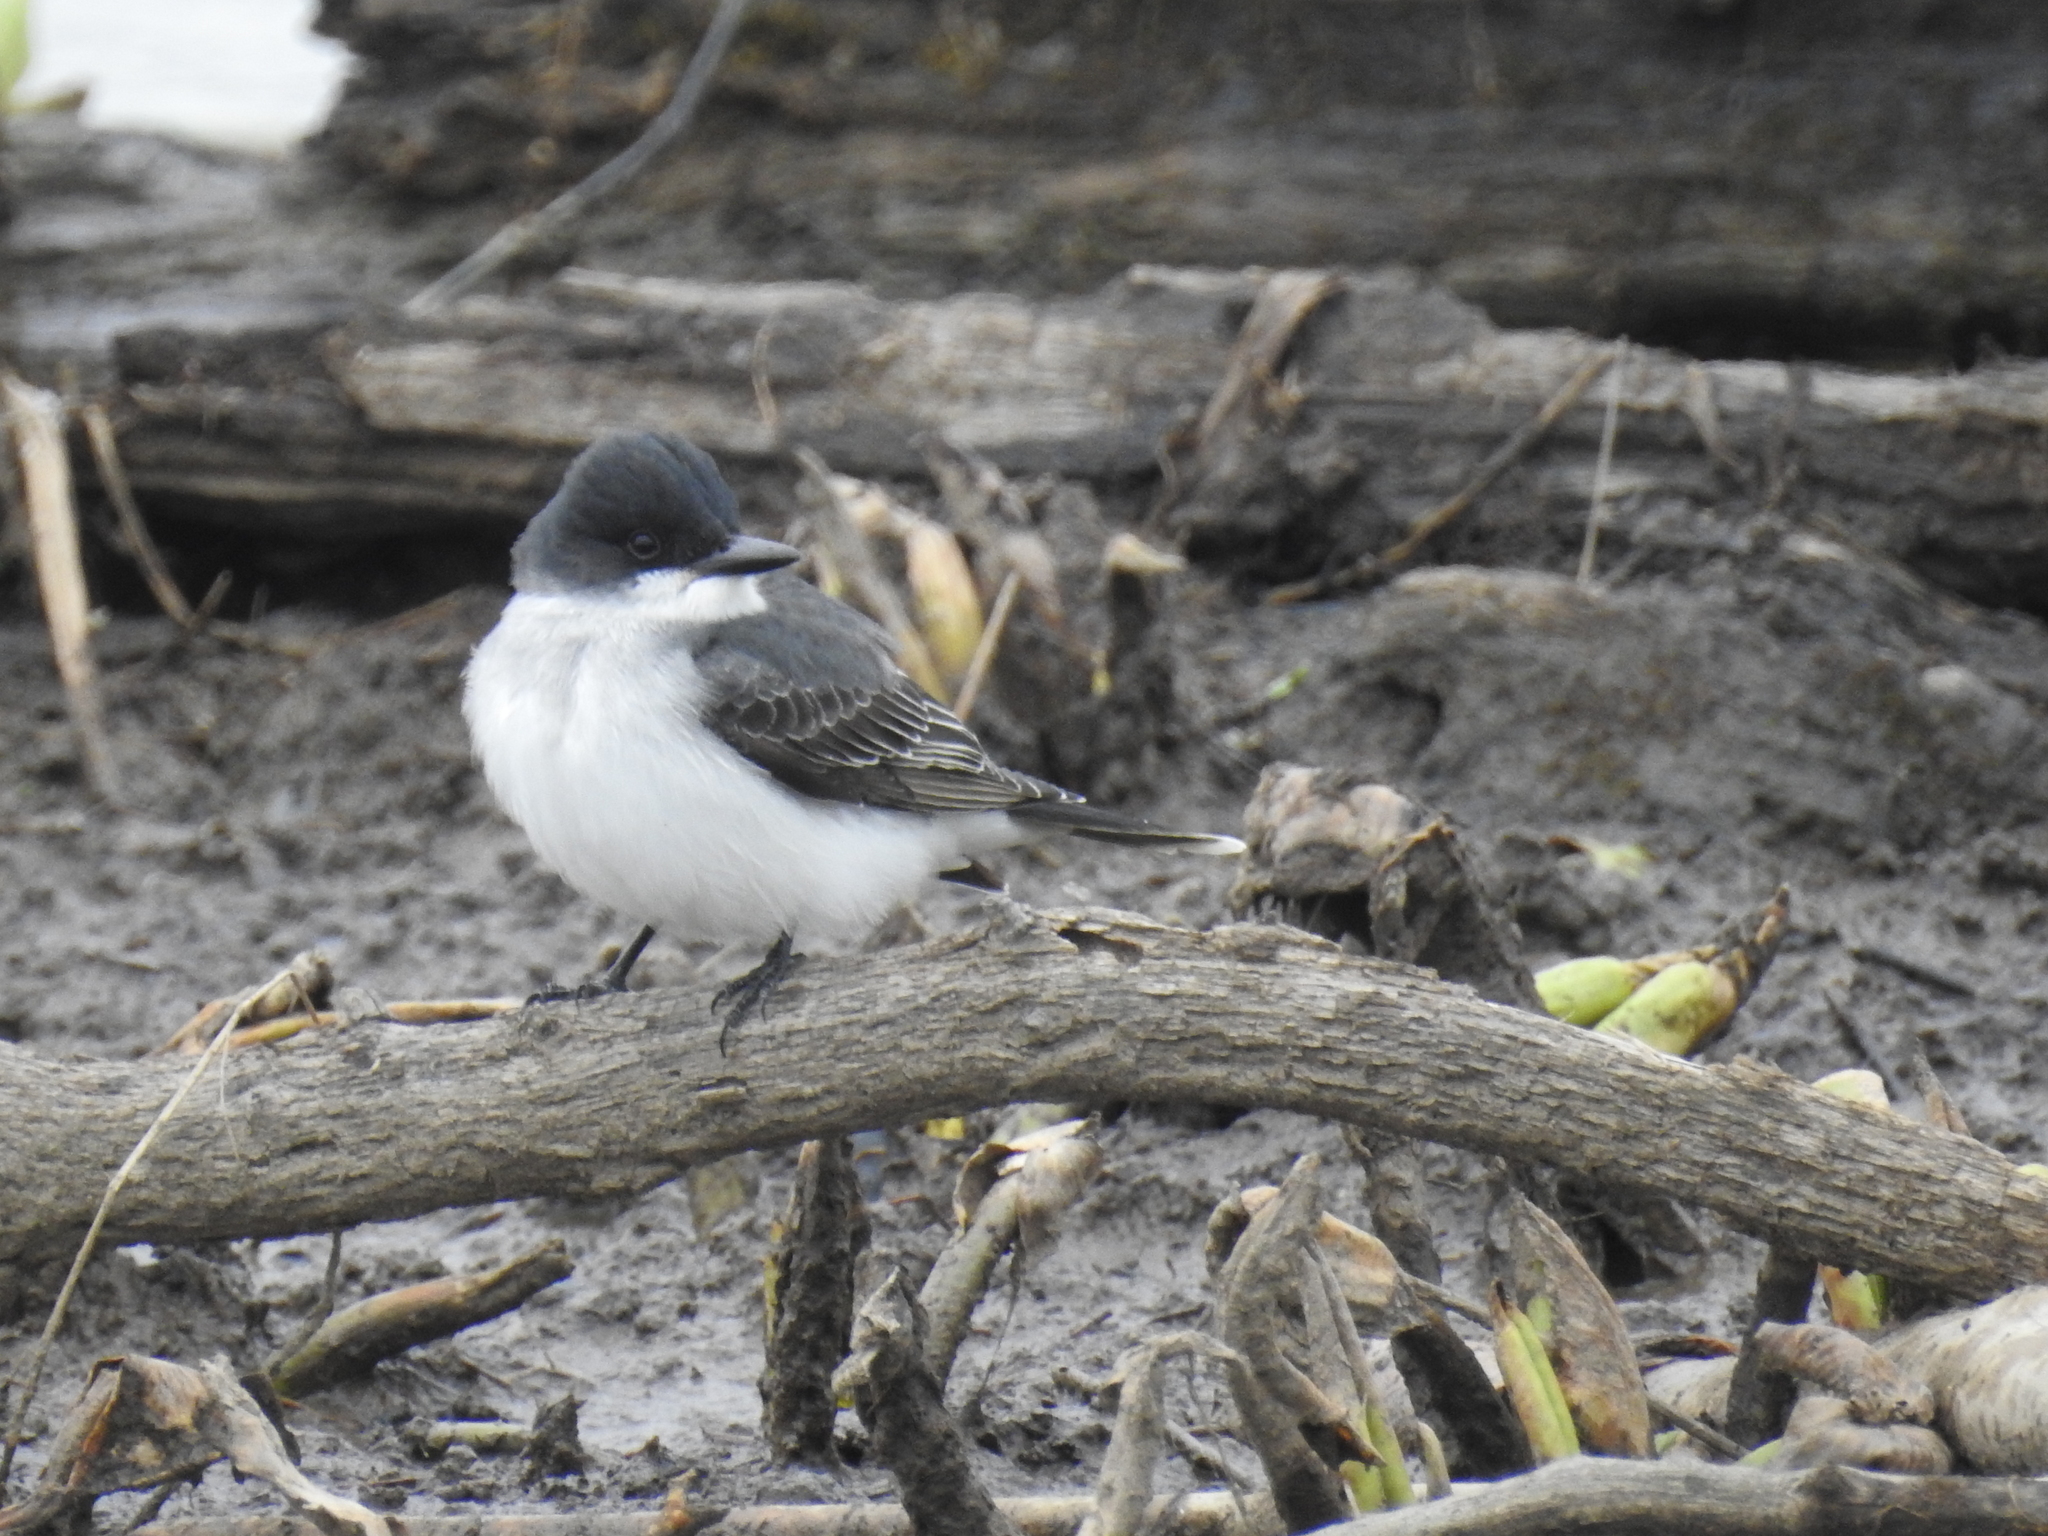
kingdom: Animalia
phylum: Chordata
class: Aves
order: Passeriformes
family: Tyrannidae
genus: Tyrannus
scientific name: Tyrannus tyrannus
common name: Eastern kingbird
